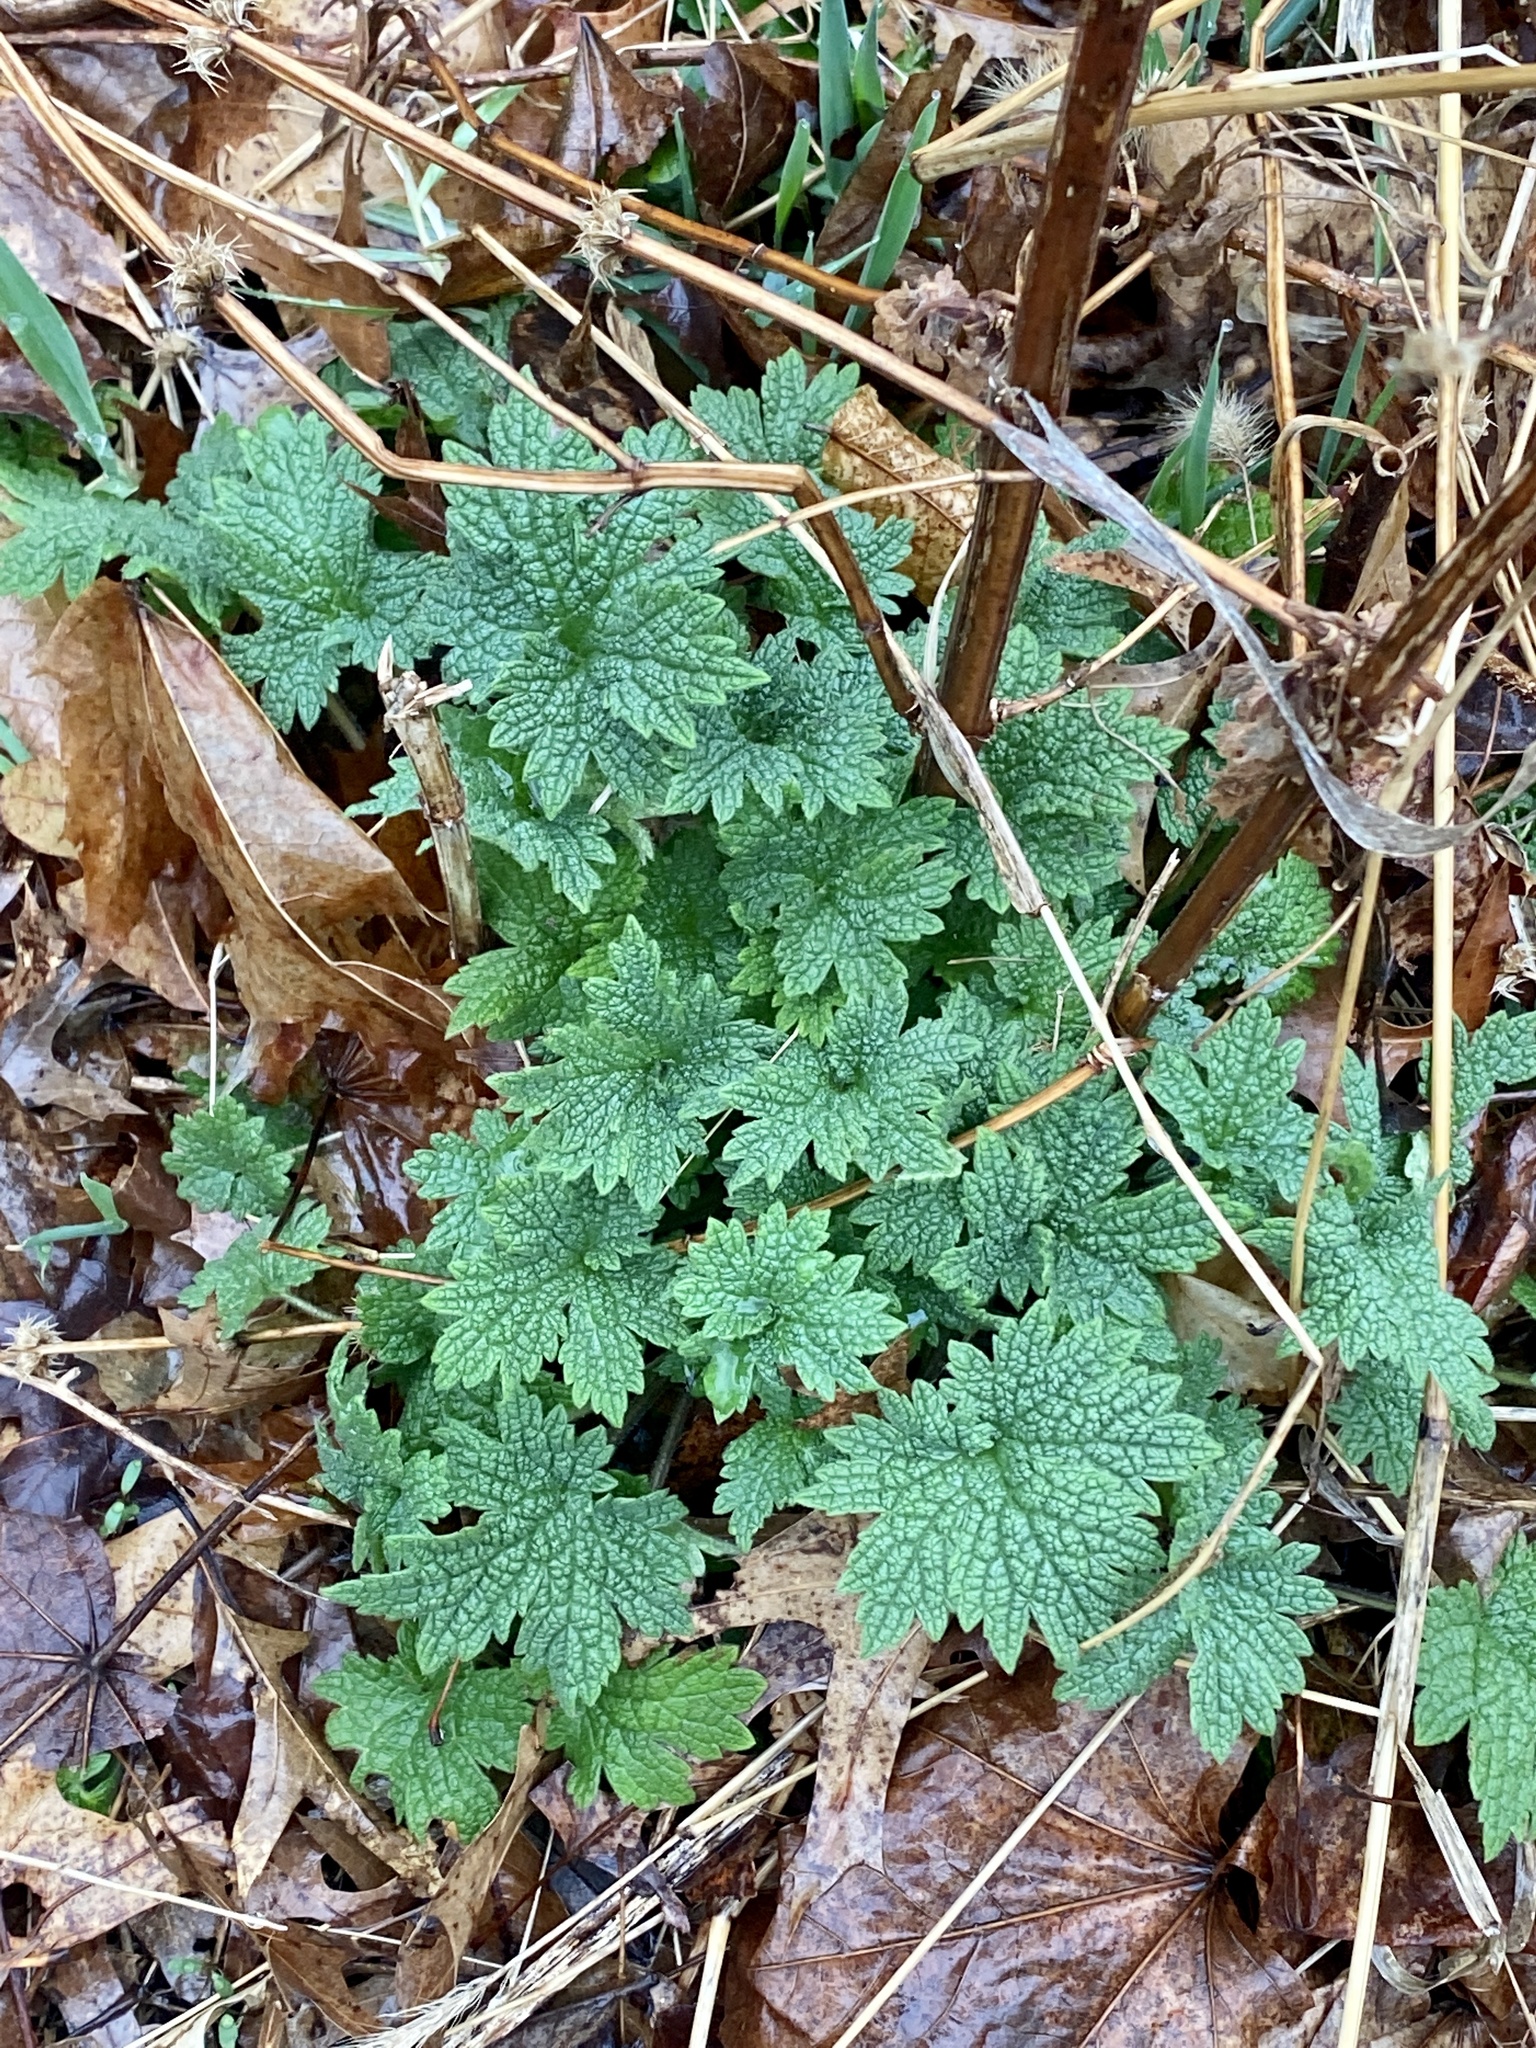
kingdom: Plantae
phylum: Tracheophyta
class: Magnoliopsida
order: Lamiales
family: Lamiaceae
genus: Leonurus
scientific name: Leonurus cardiaca
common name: Motherwort
